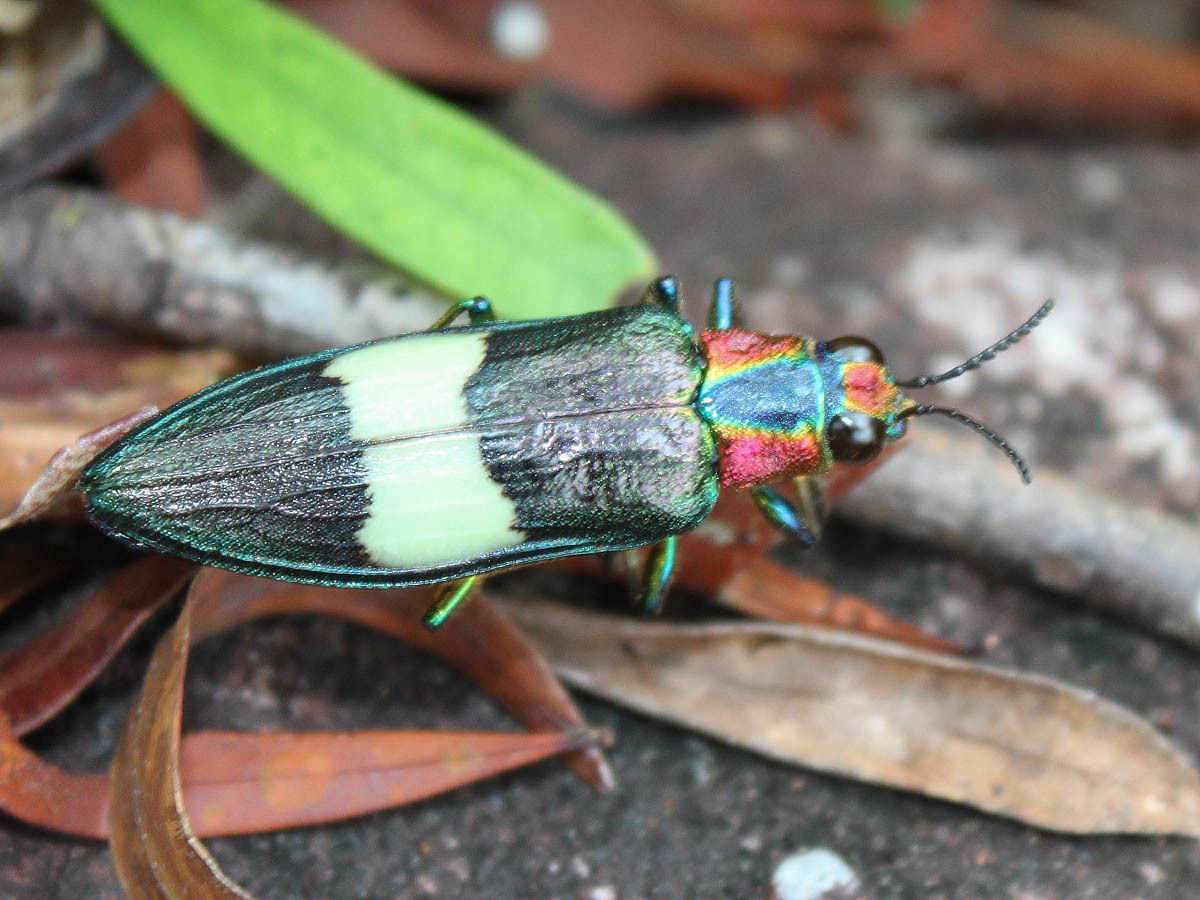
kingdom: Animalia
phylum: Arthropoda
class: Insecta
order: Coleoptera
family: Buprestidae
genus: Chrysochroa
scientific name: Chrysochroa annamensis
